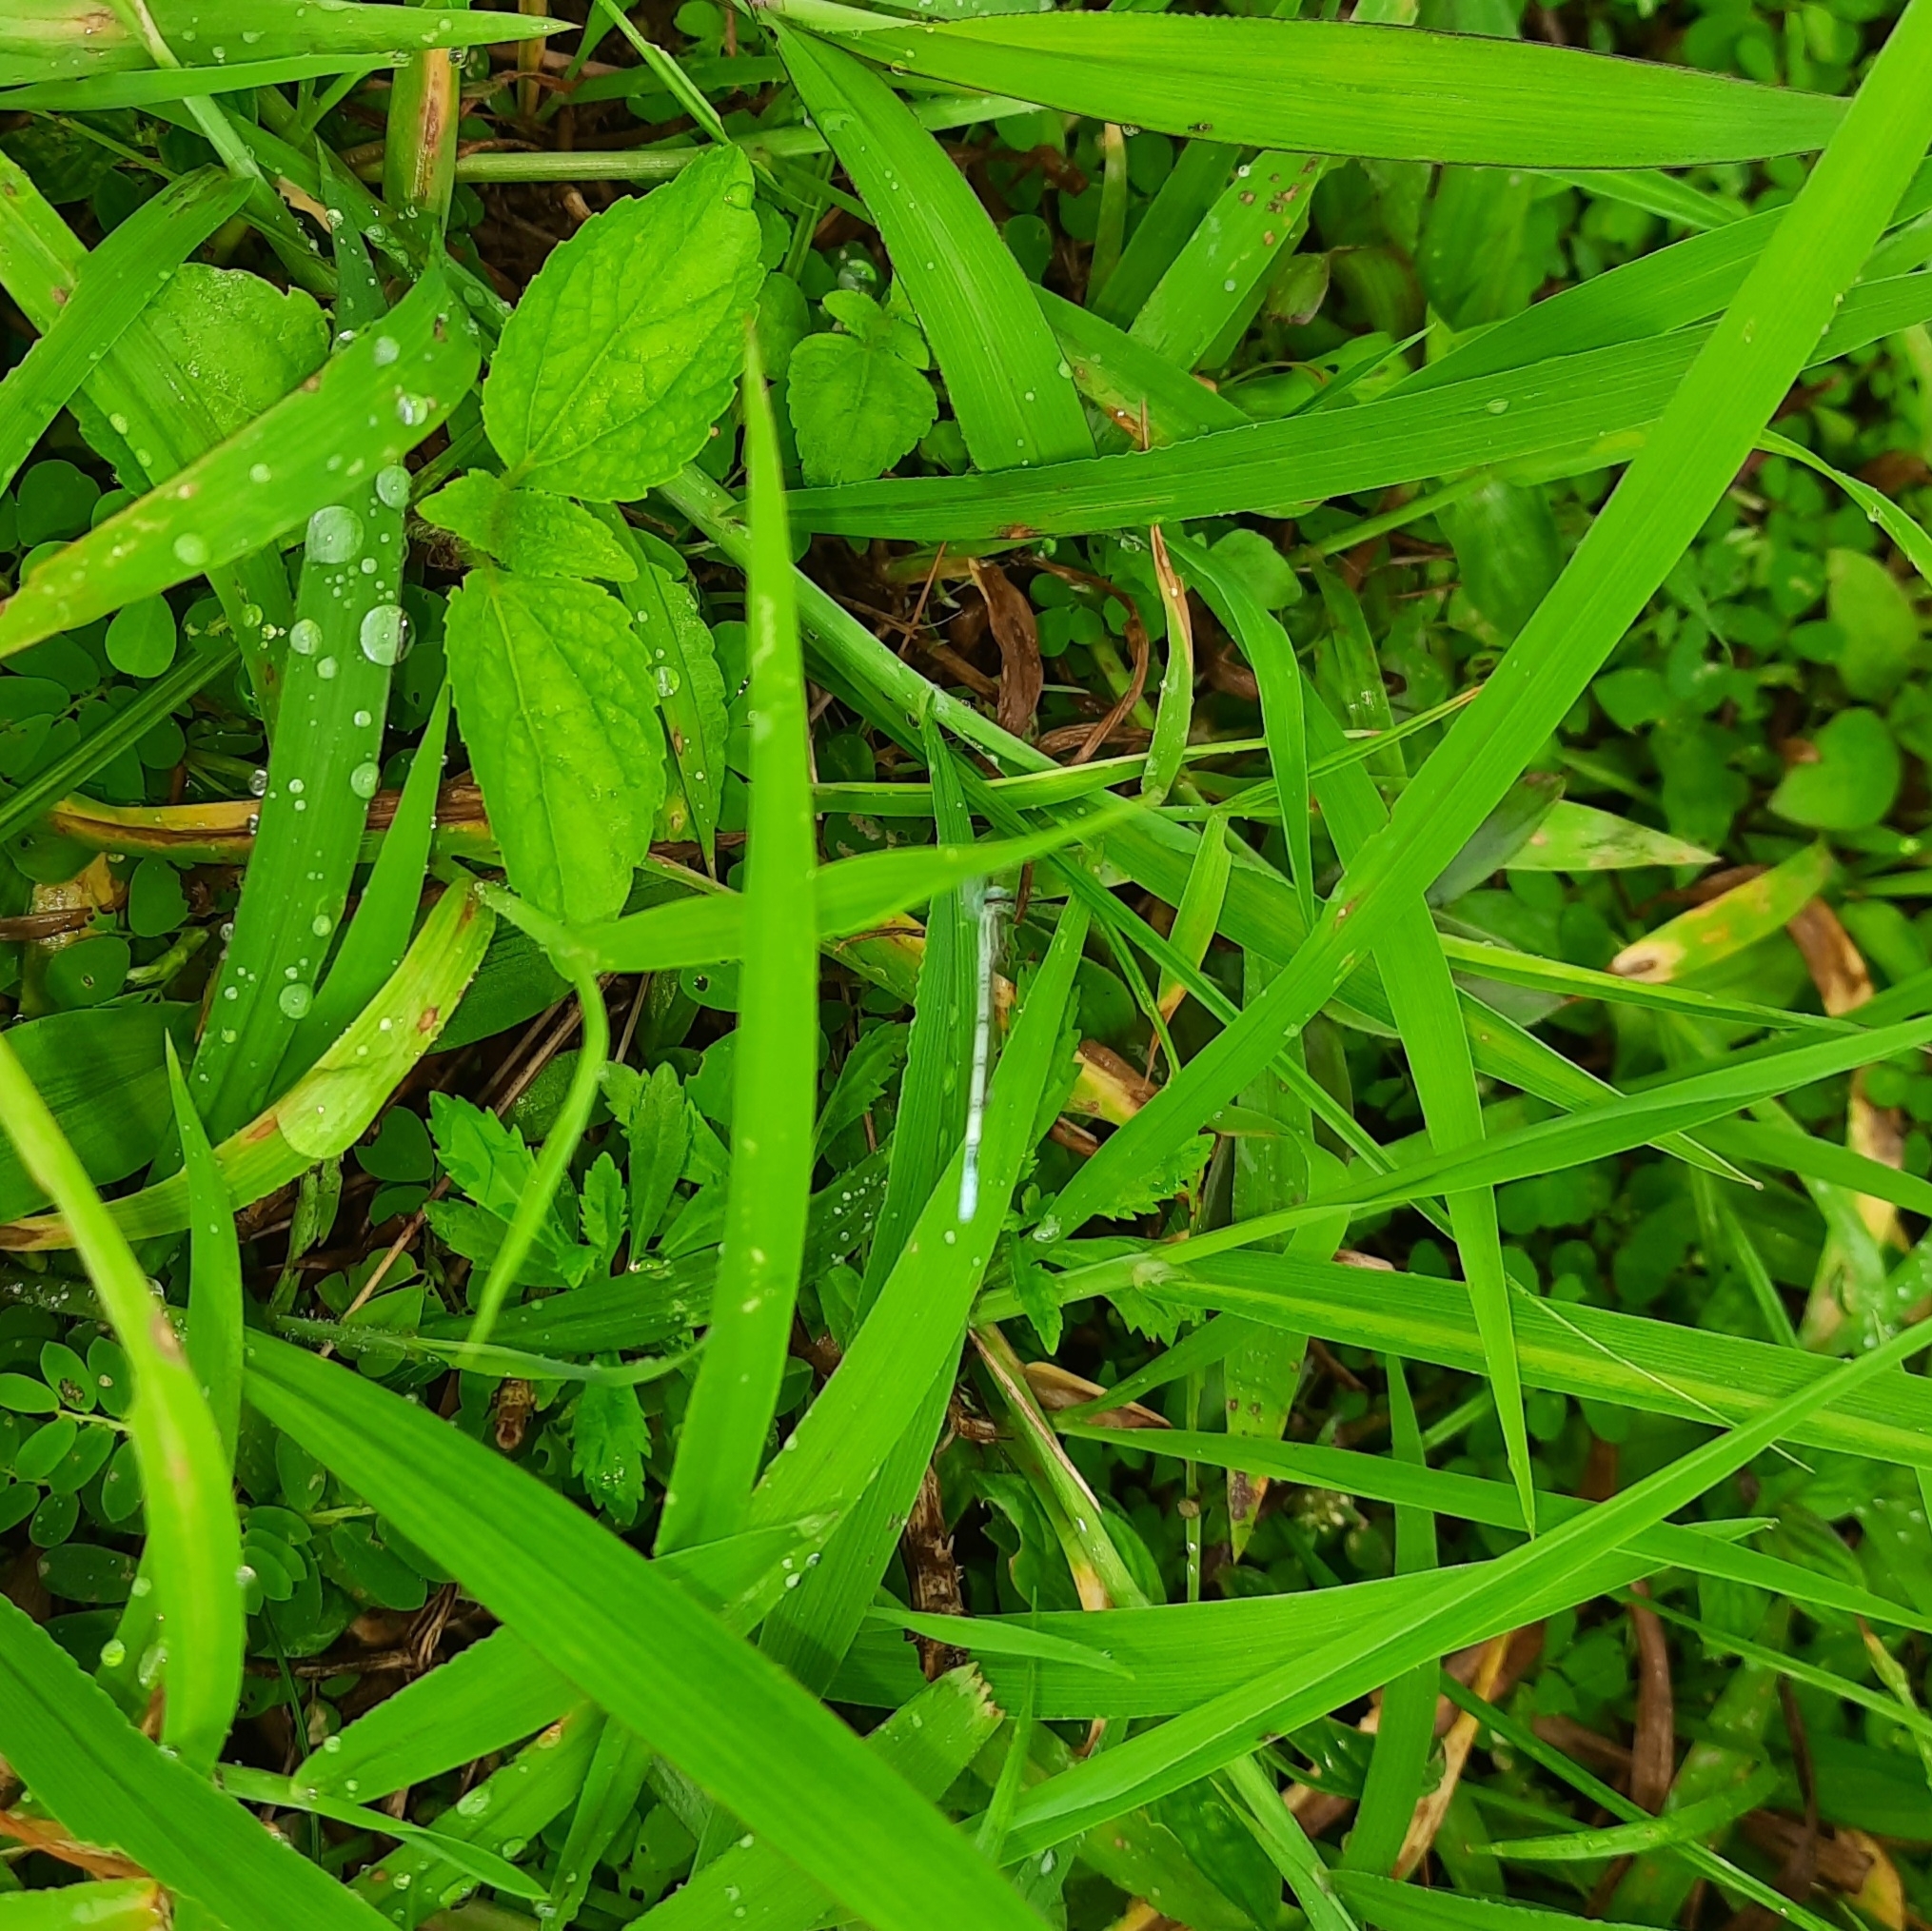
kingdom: Animalia
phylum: Arthropoda
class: Insecta
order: Odonata
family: Coenagrionidae
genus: Agriocnemis
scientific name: Agriocnemis pieris
